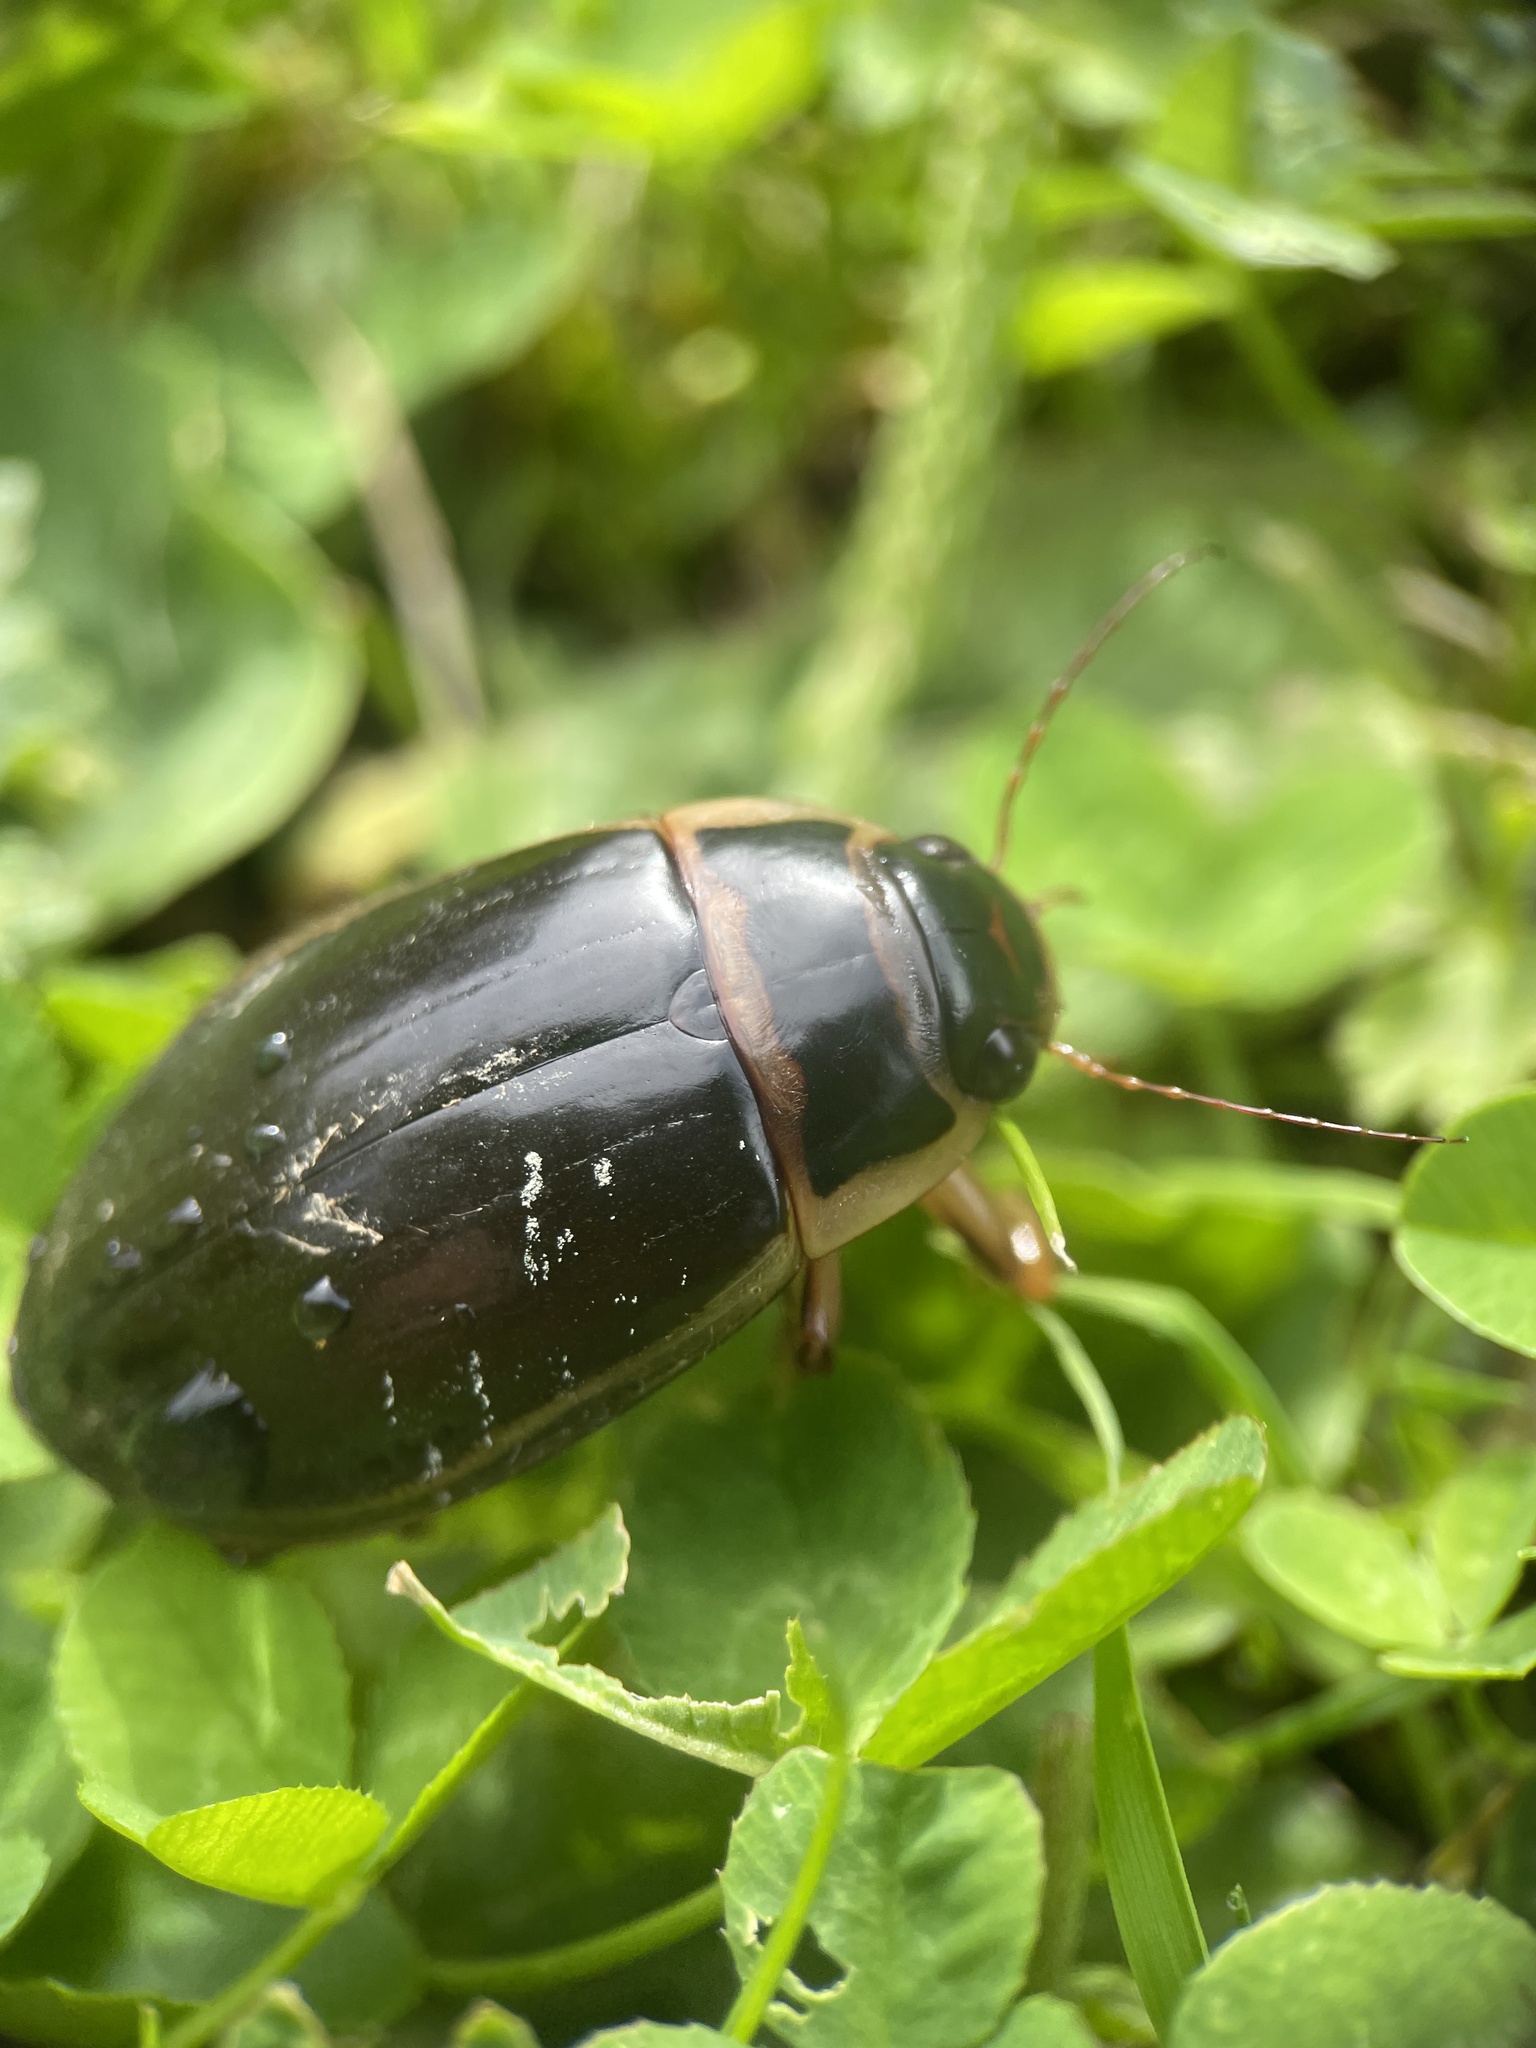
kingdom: Animalia
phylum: Arthropoda
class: Insecta
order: Coleoptera
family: Dytiscidae
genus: Dytiscus
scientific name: Dytiscus marginalis
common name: Great water beetle
